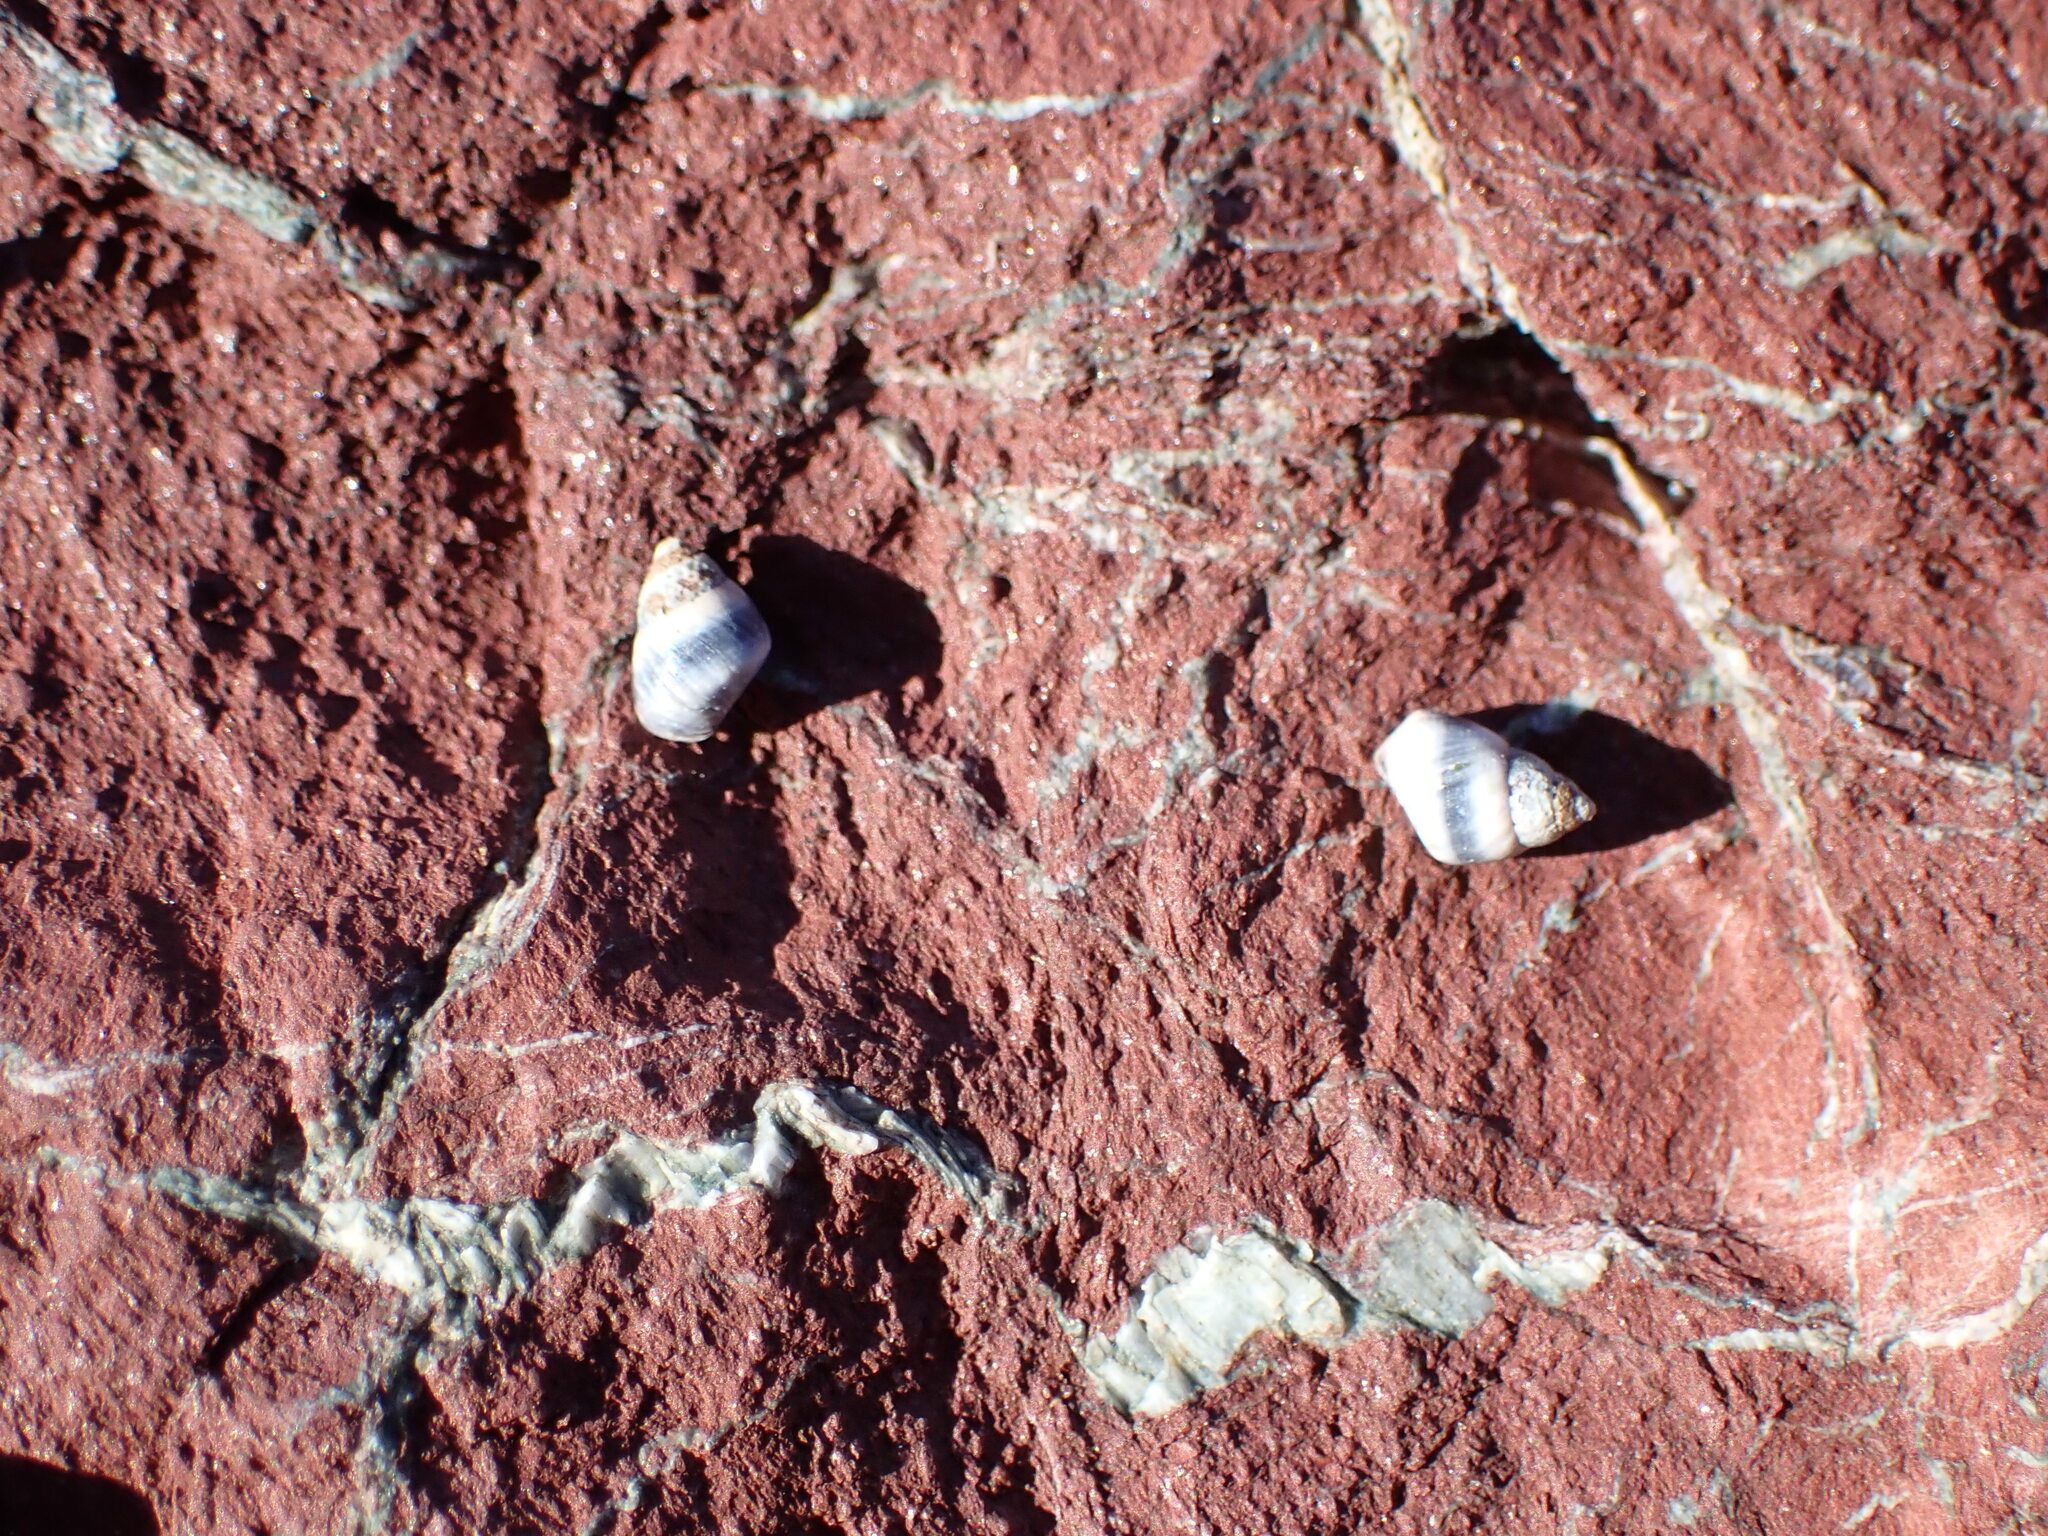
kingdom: Animalia
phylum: Mollusca
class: Gastropoda
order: Littorinimorpha
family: Littorinidae
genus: Austrolittorina
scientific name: Austrolittorina antipodum
